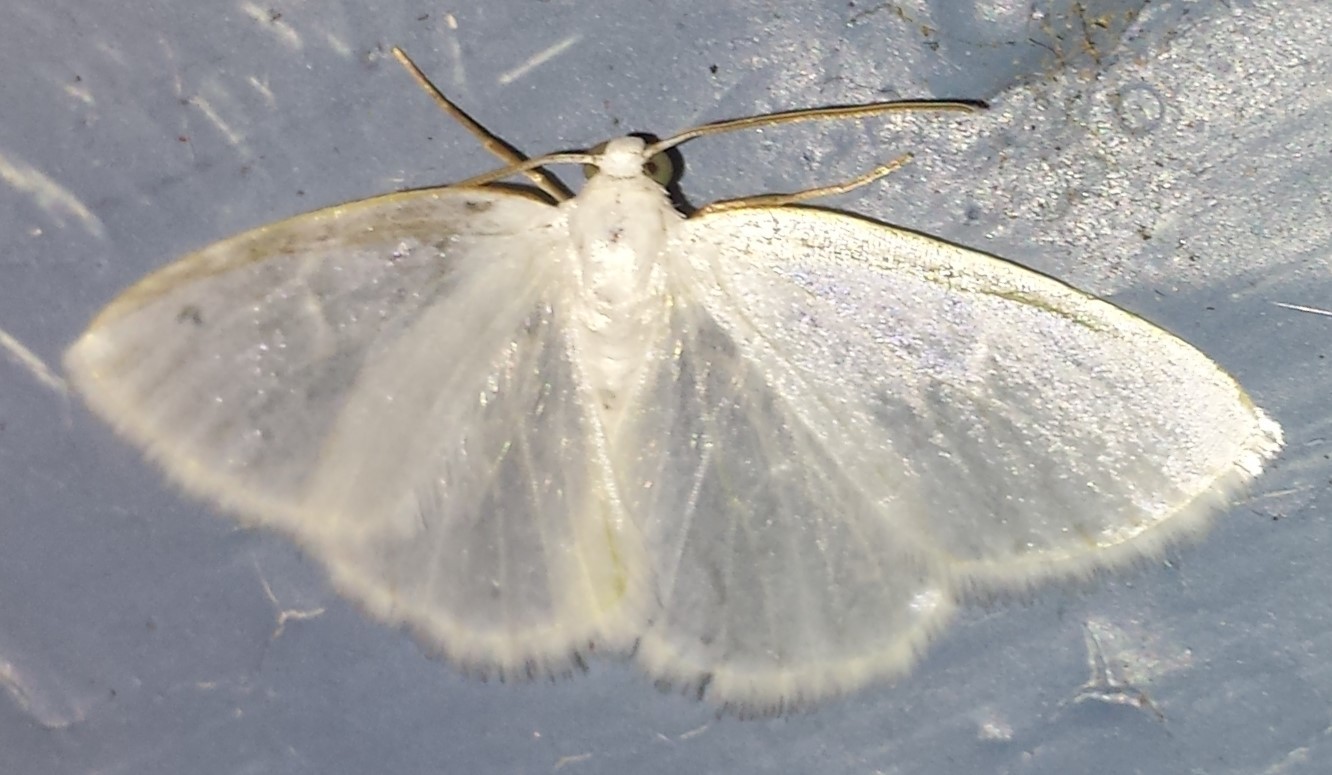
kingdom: Animalia
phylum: Arthropoda
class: Insecta
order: Lepidoptera
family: Geometridae
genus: Lomographa
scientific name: Lomographa vestaliata
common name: White spring moth
